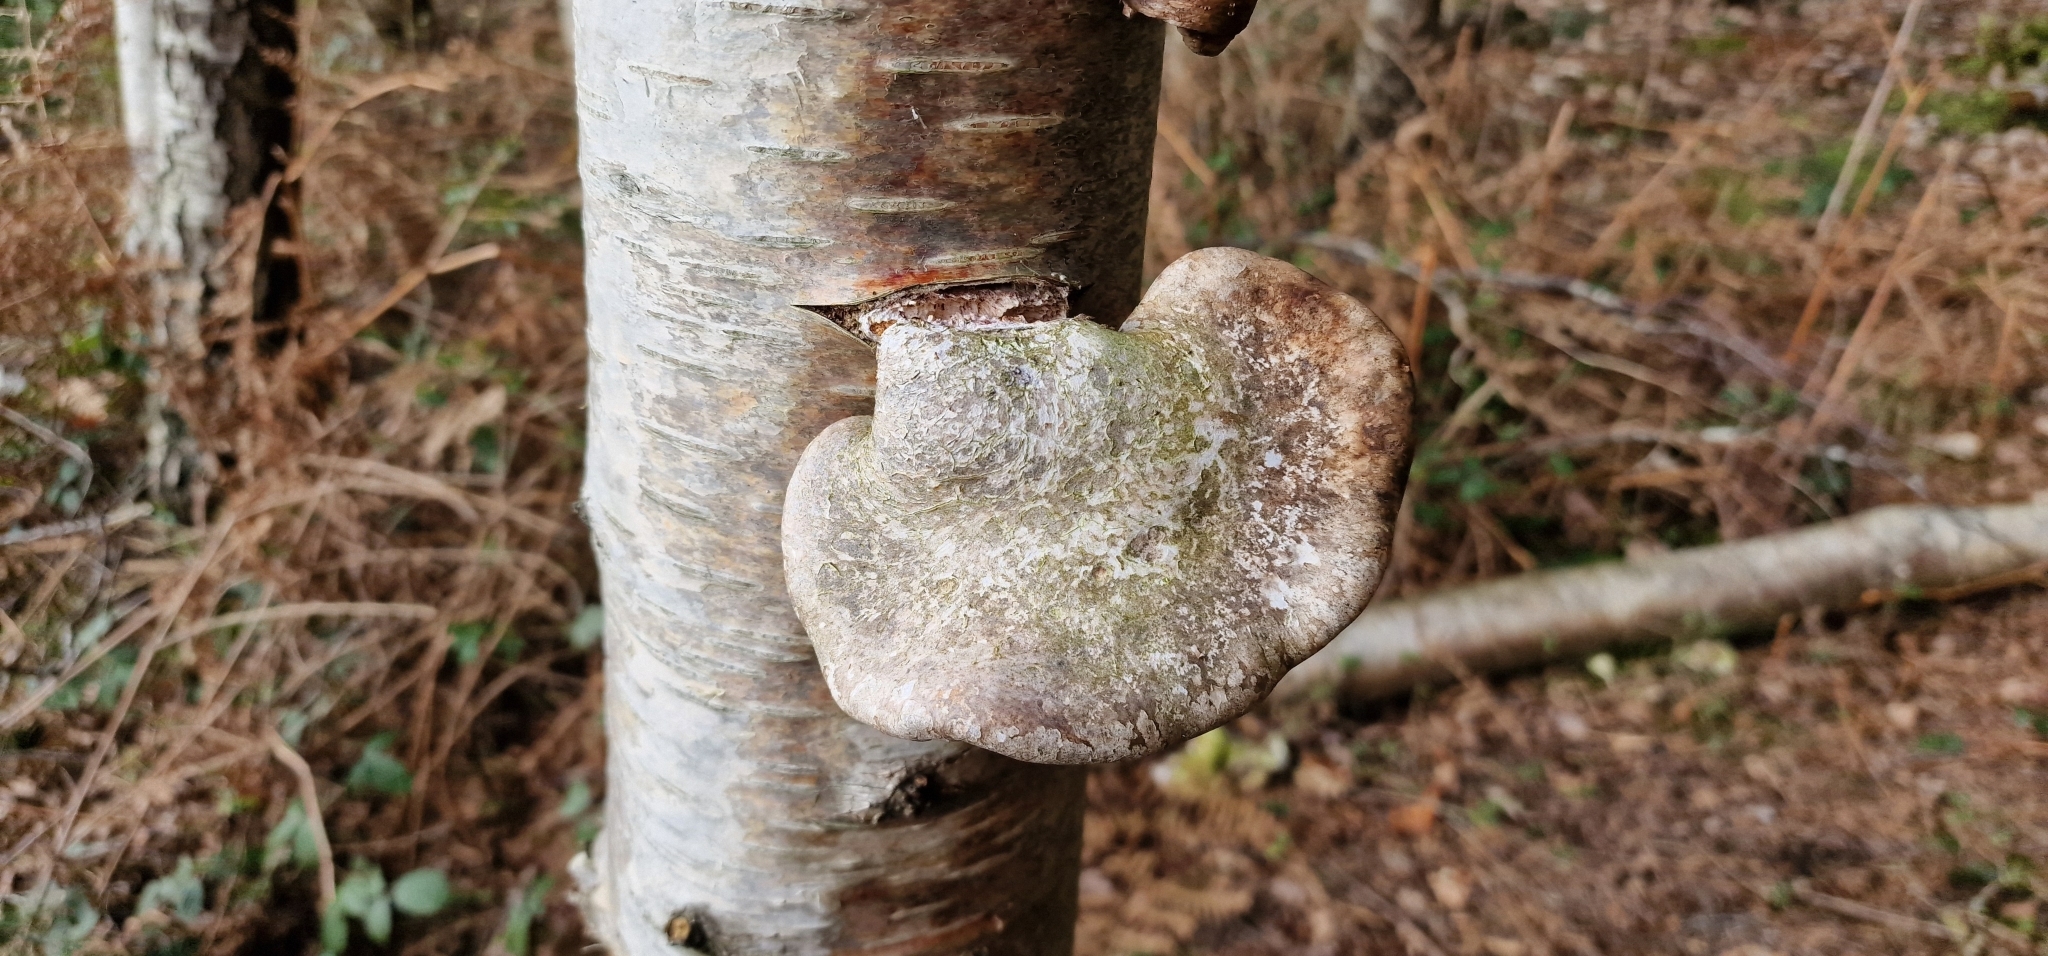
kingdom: Plantae
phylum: Tracheophyta
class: Magnoliopsida
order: Fagales
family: Betulaceae
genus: Betula
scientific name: Betula pubescens
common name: Downy birch
